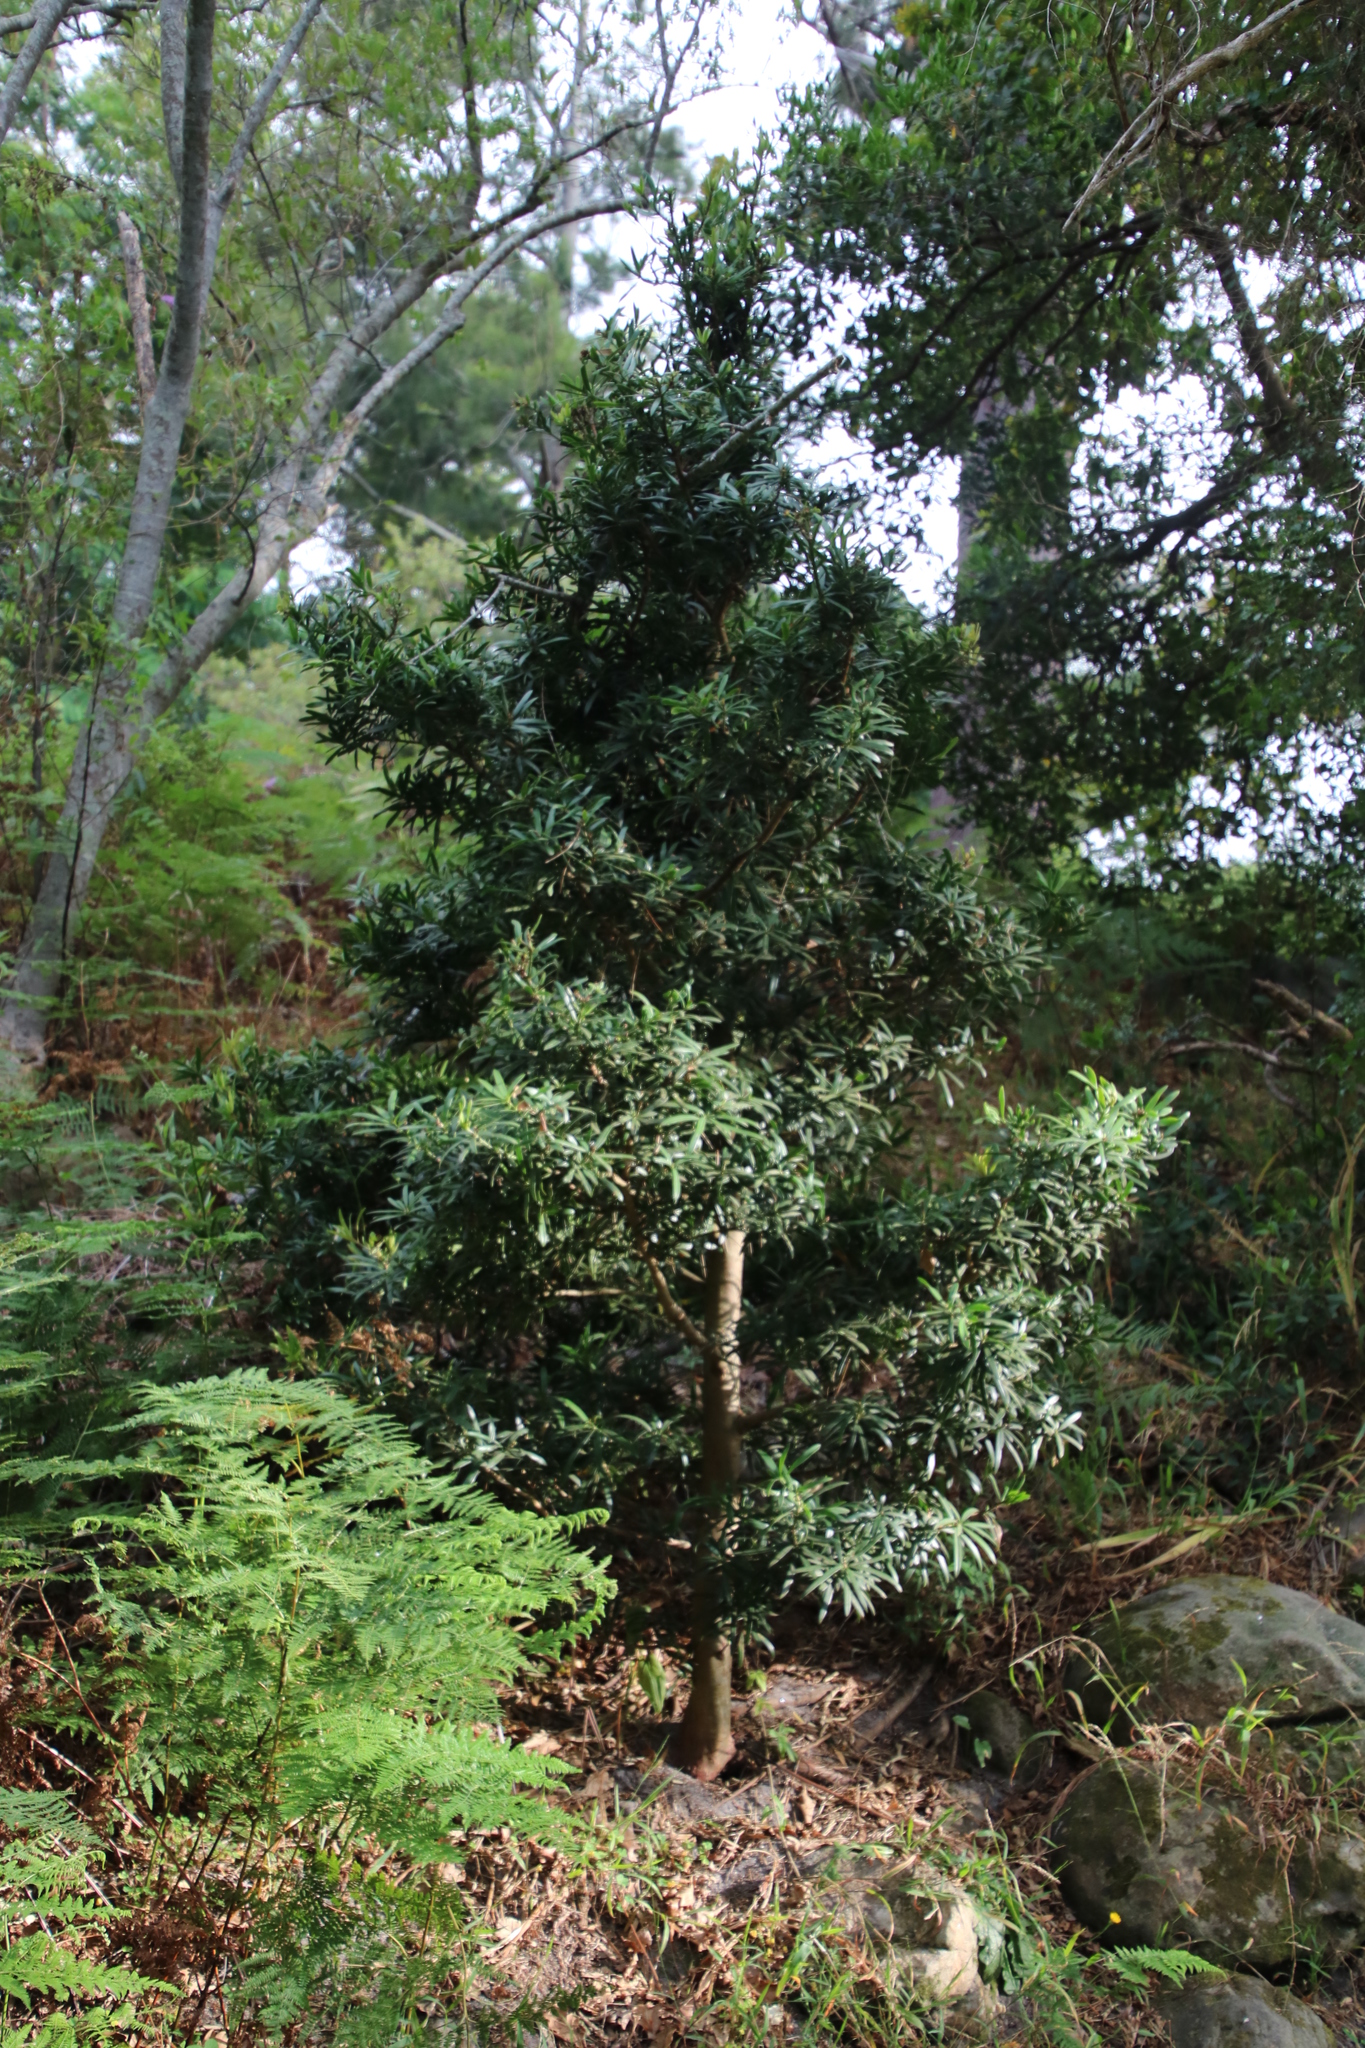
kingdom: Plantae
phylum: Tracheophyta
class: Pinopsida
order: Pinales
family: Podocarpaceae
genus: Podocarpus
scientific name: Podocarpus latifolius
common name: True yellowwood
